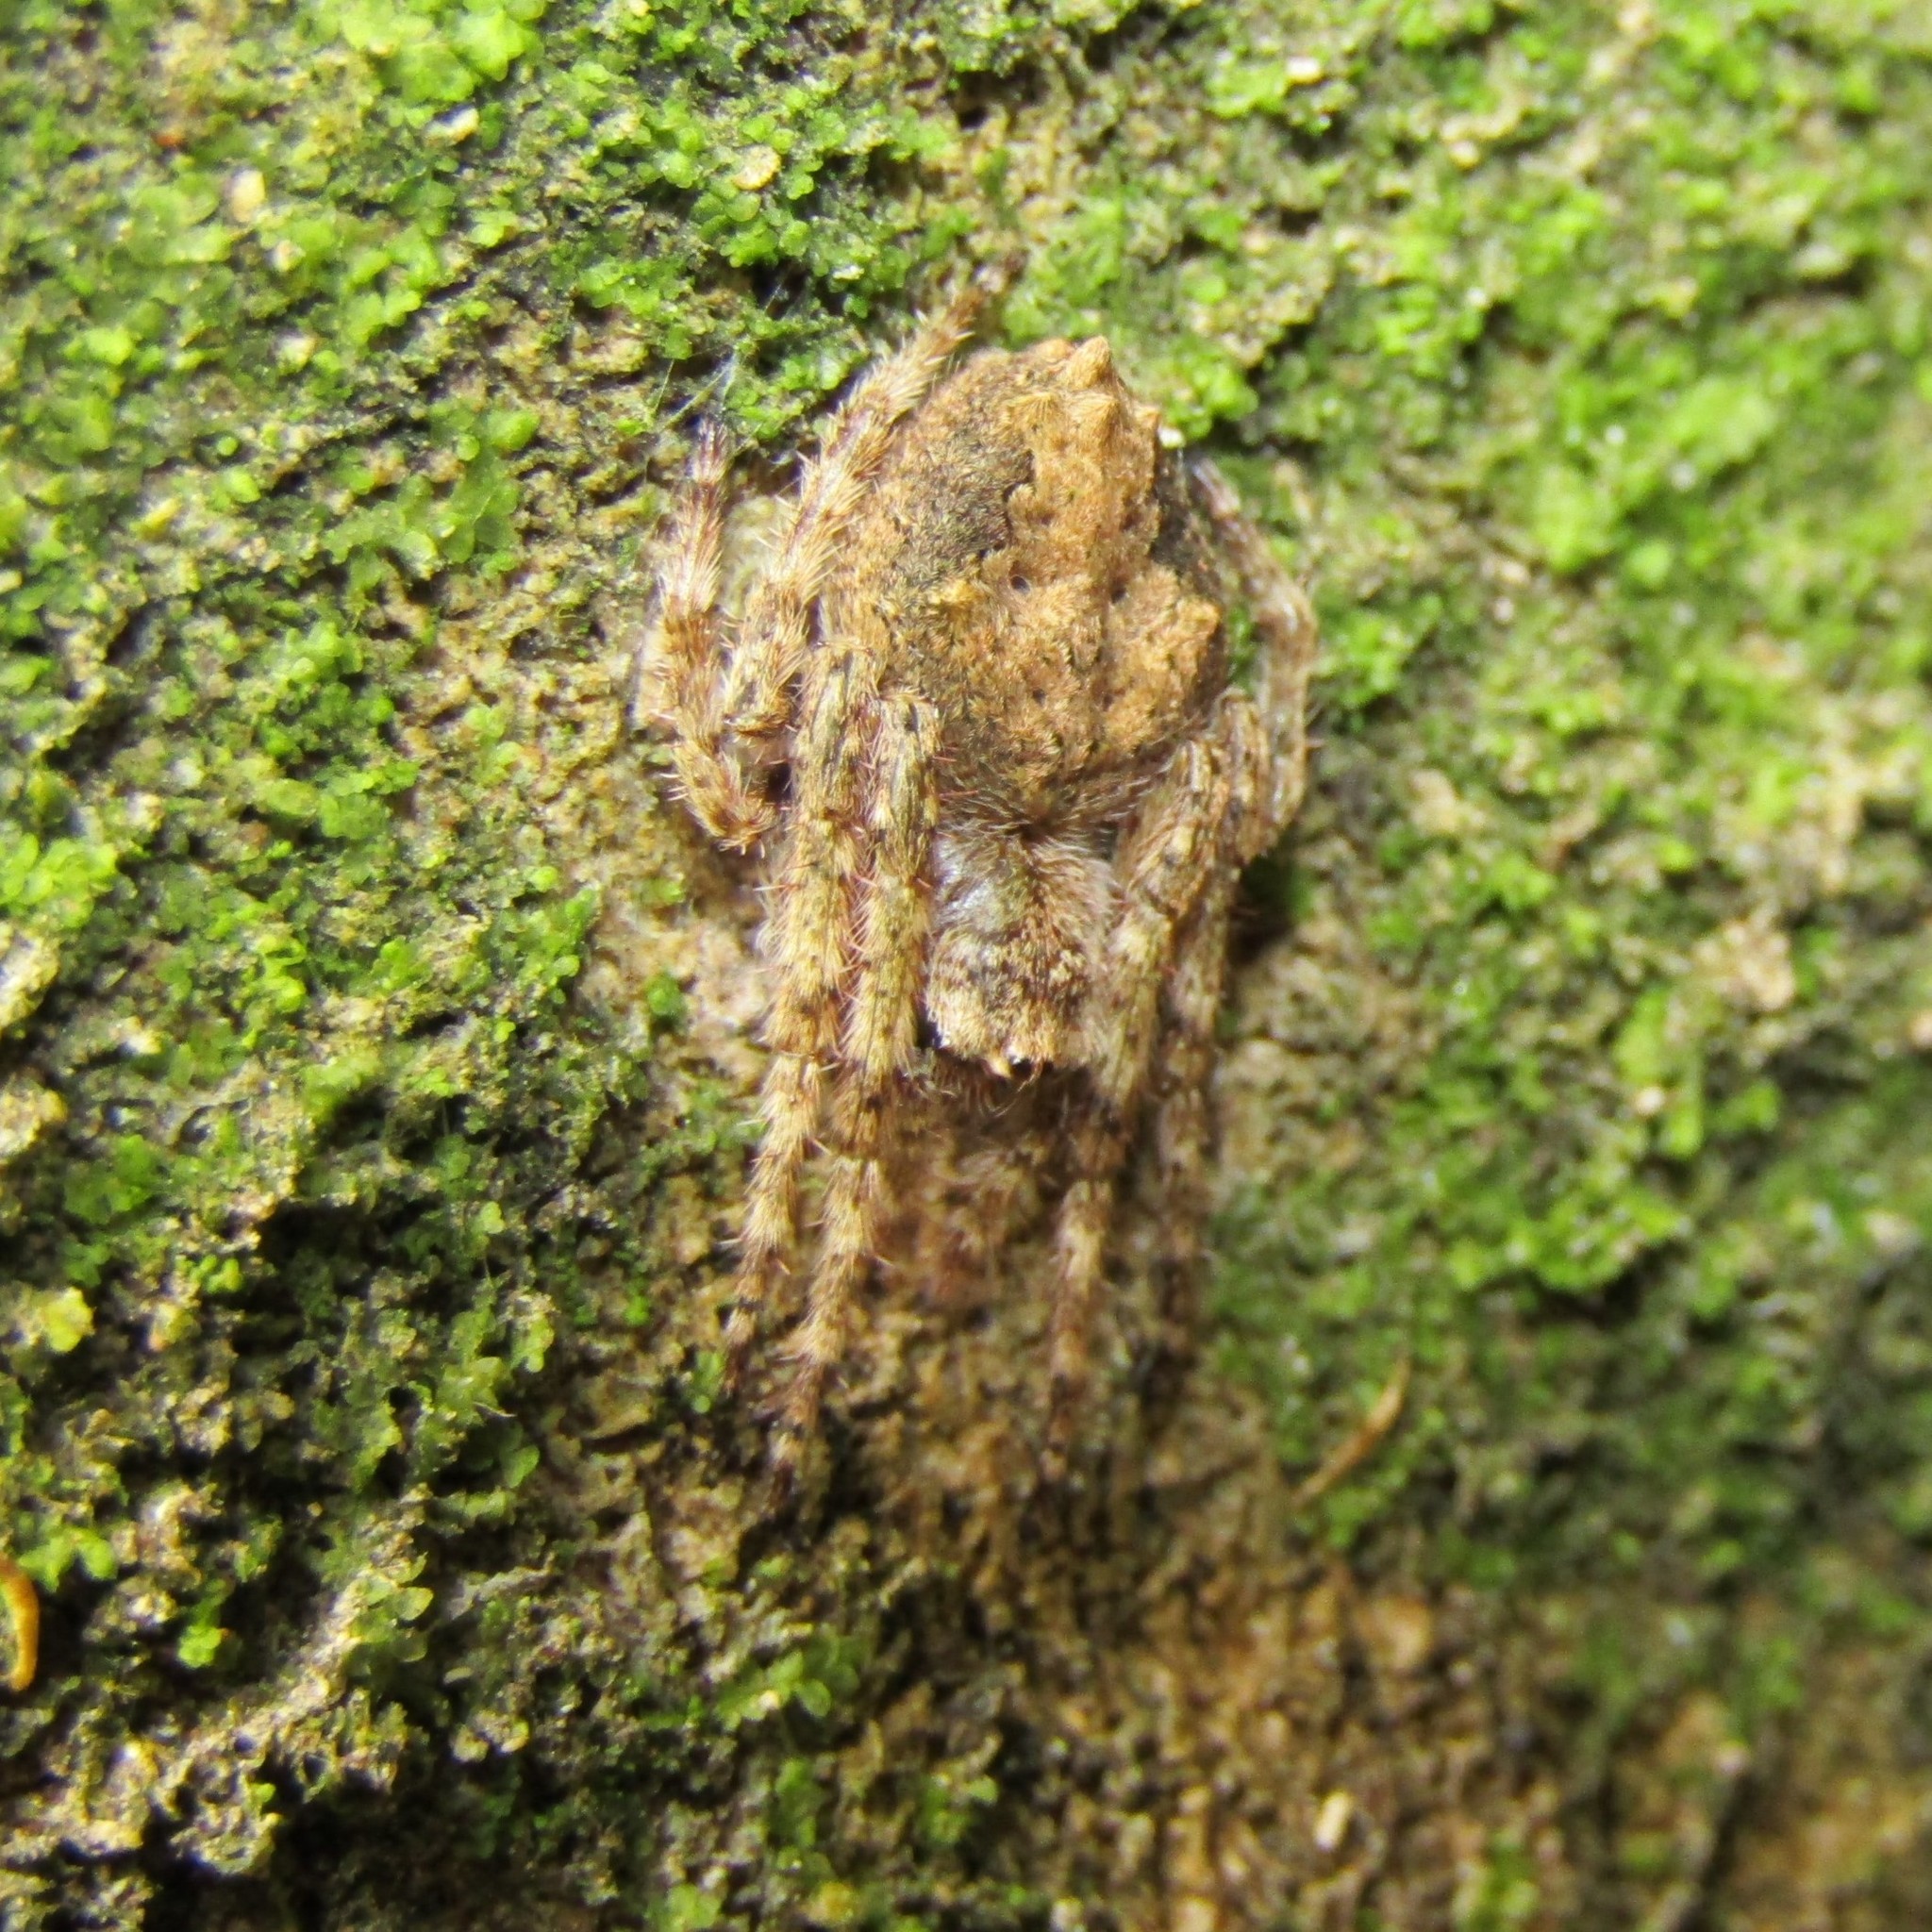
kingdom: Animalia
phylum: Arthropoda
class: Arachnida
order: Araneae
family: Araneidae
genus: Eriophora
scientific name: Eriophora pustulosa
